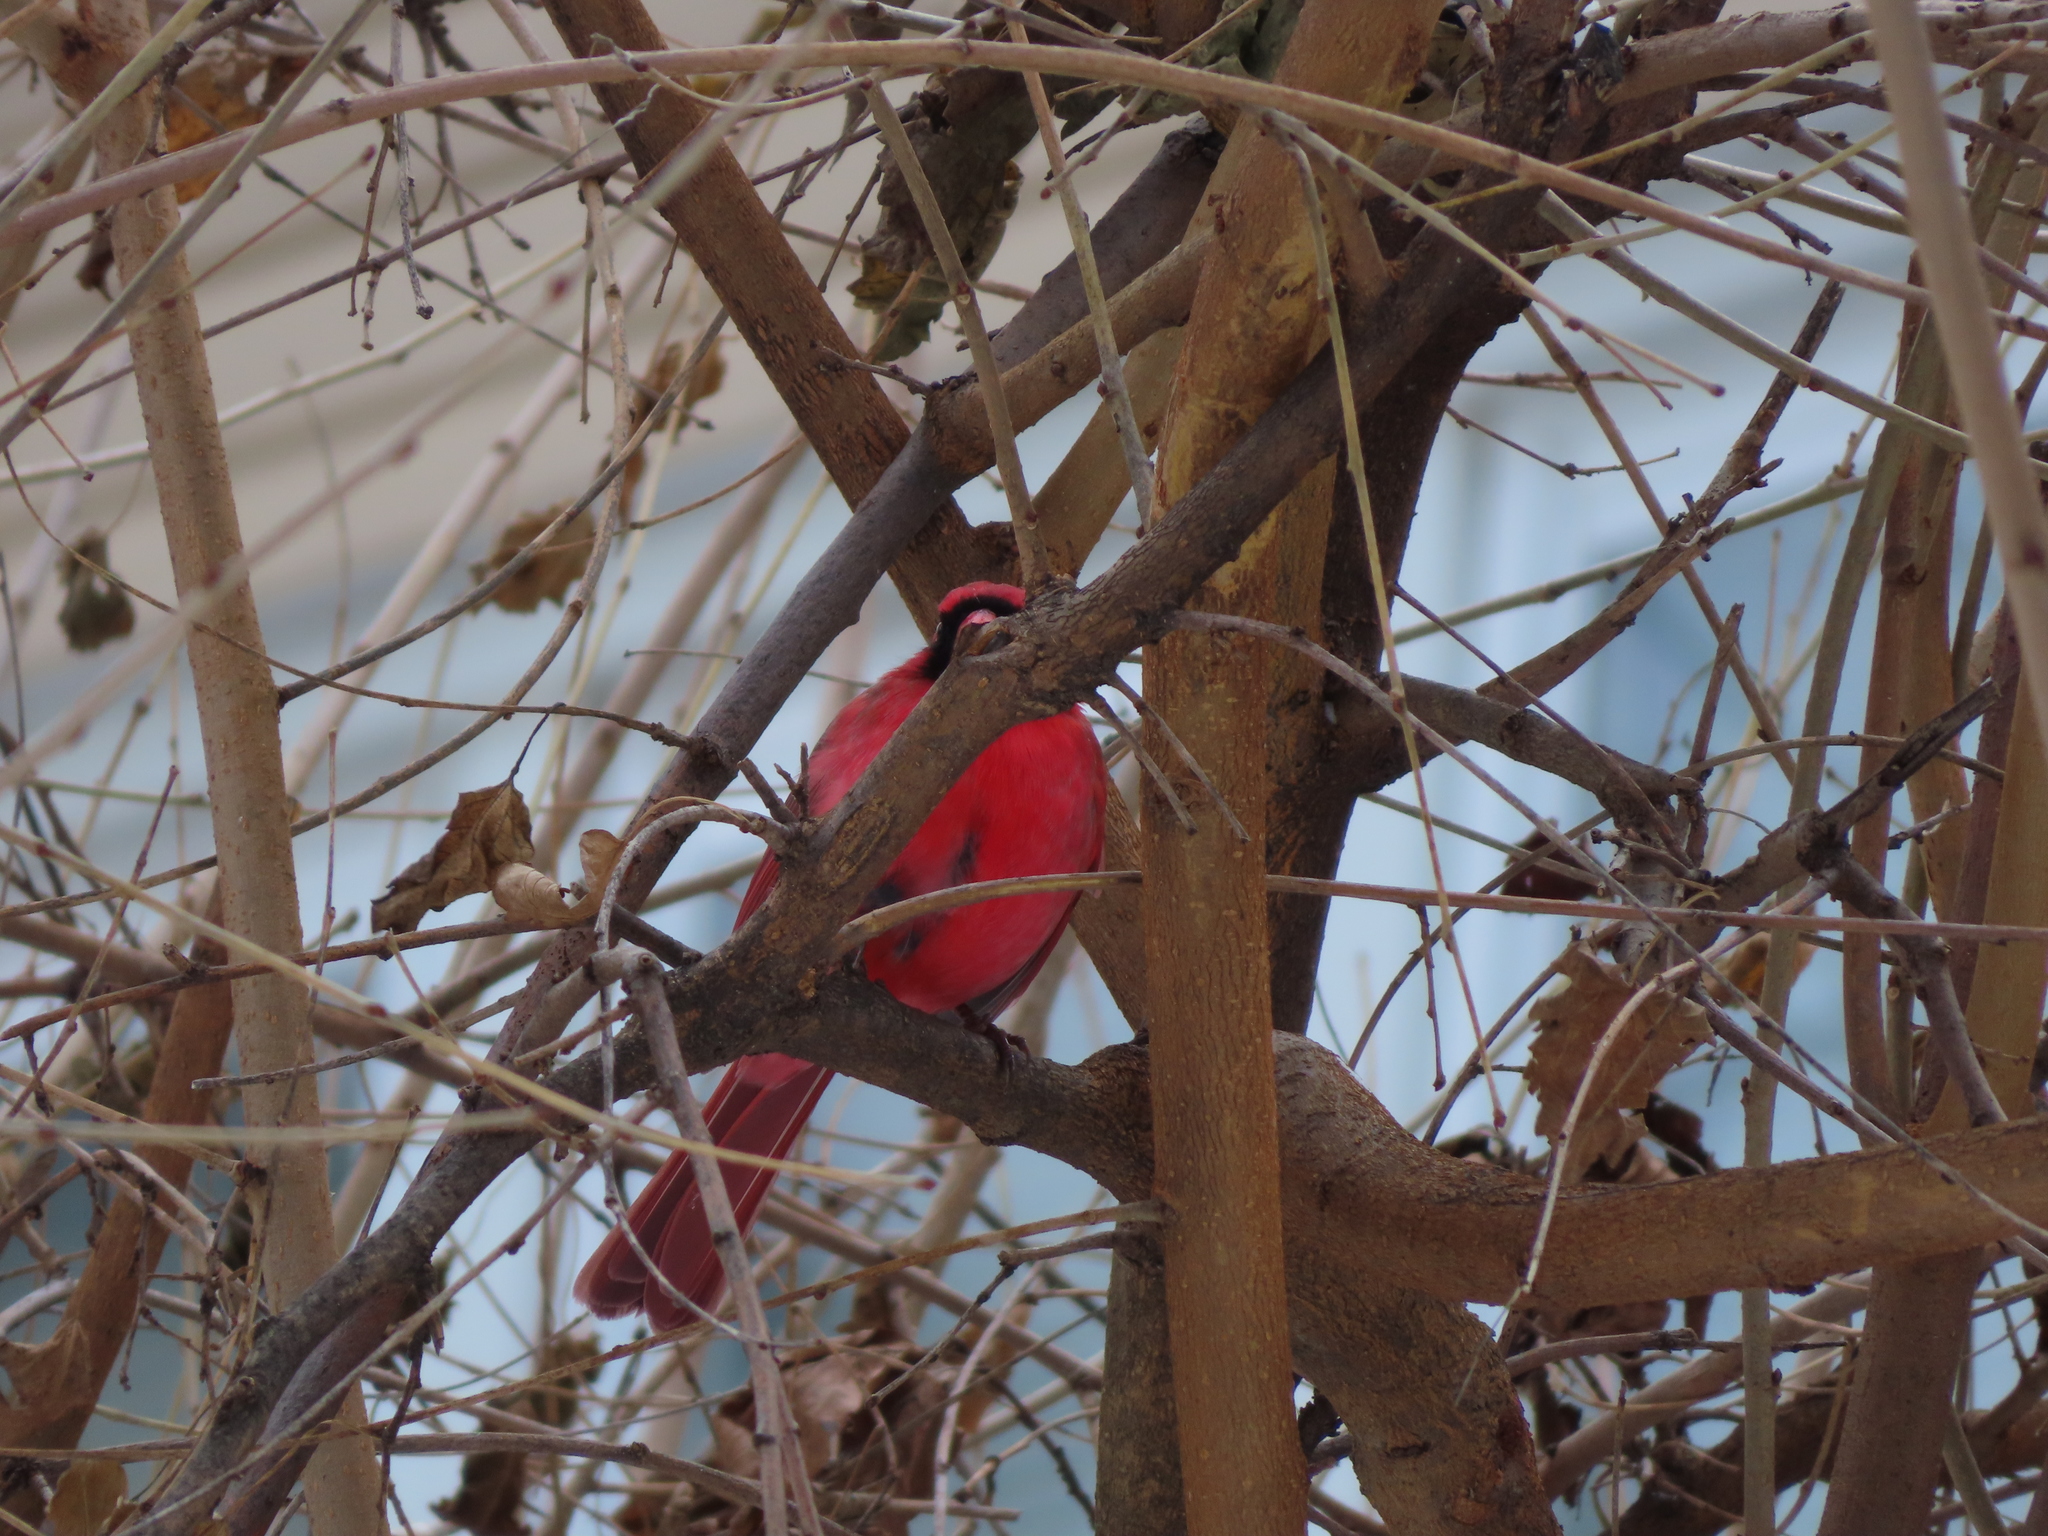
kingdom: Animalia
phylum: Chordata
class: Aves
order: Passeriformes
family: Cardinalidae
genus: Cardinalis
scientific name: Cardinalis cardinalis
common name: Northern cardinal
